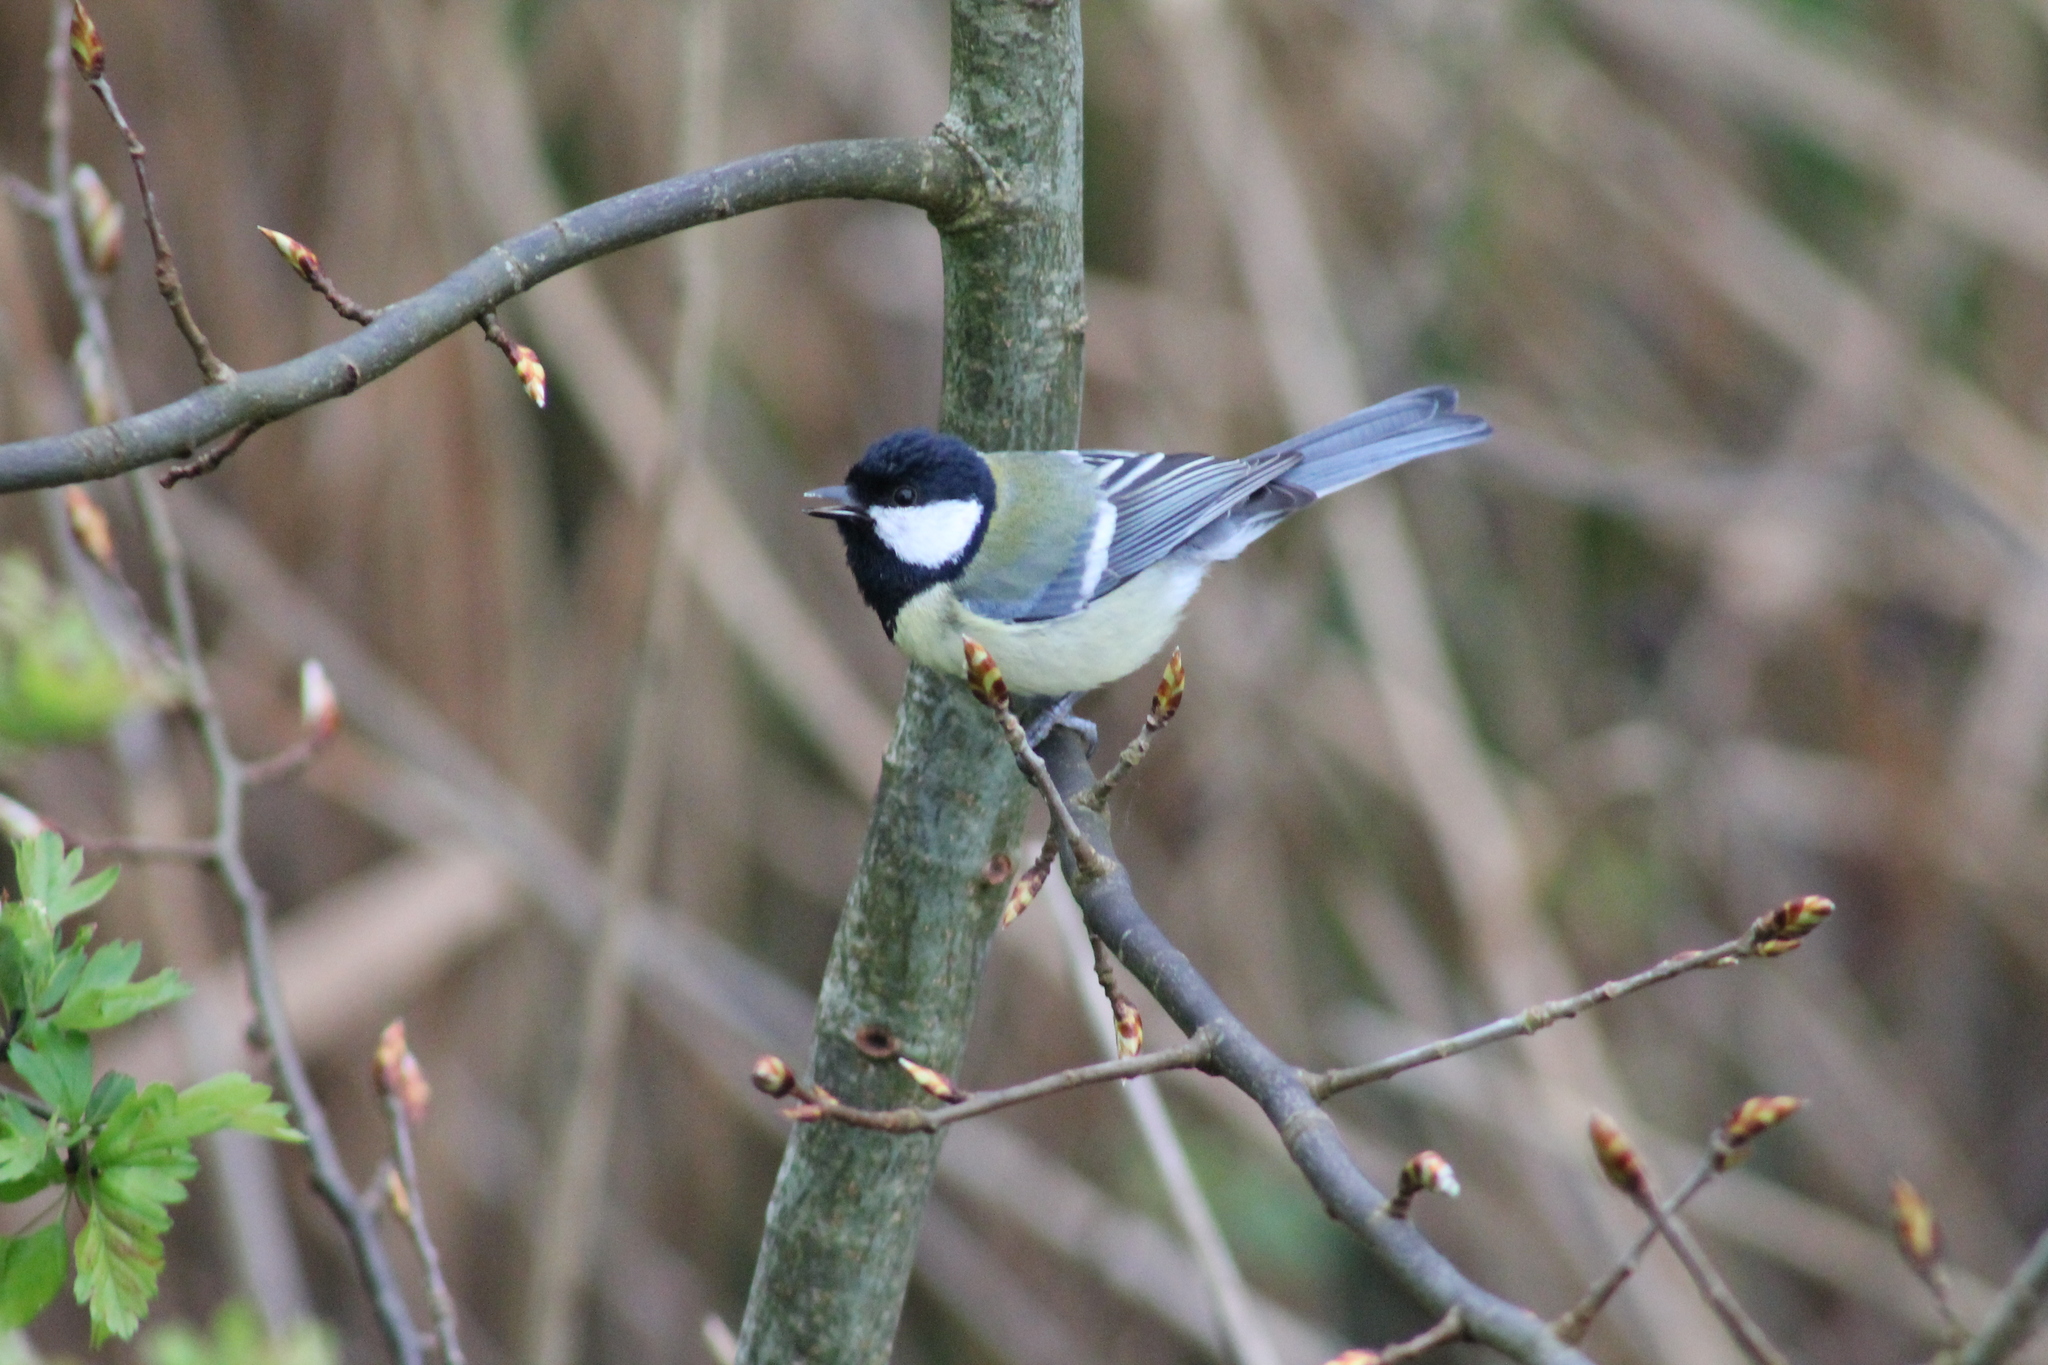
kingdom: Animalia
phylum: Chordata
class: Aves
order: Passeriformes
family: Paridae
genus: Parus
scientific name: Parus major
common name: Great tit
